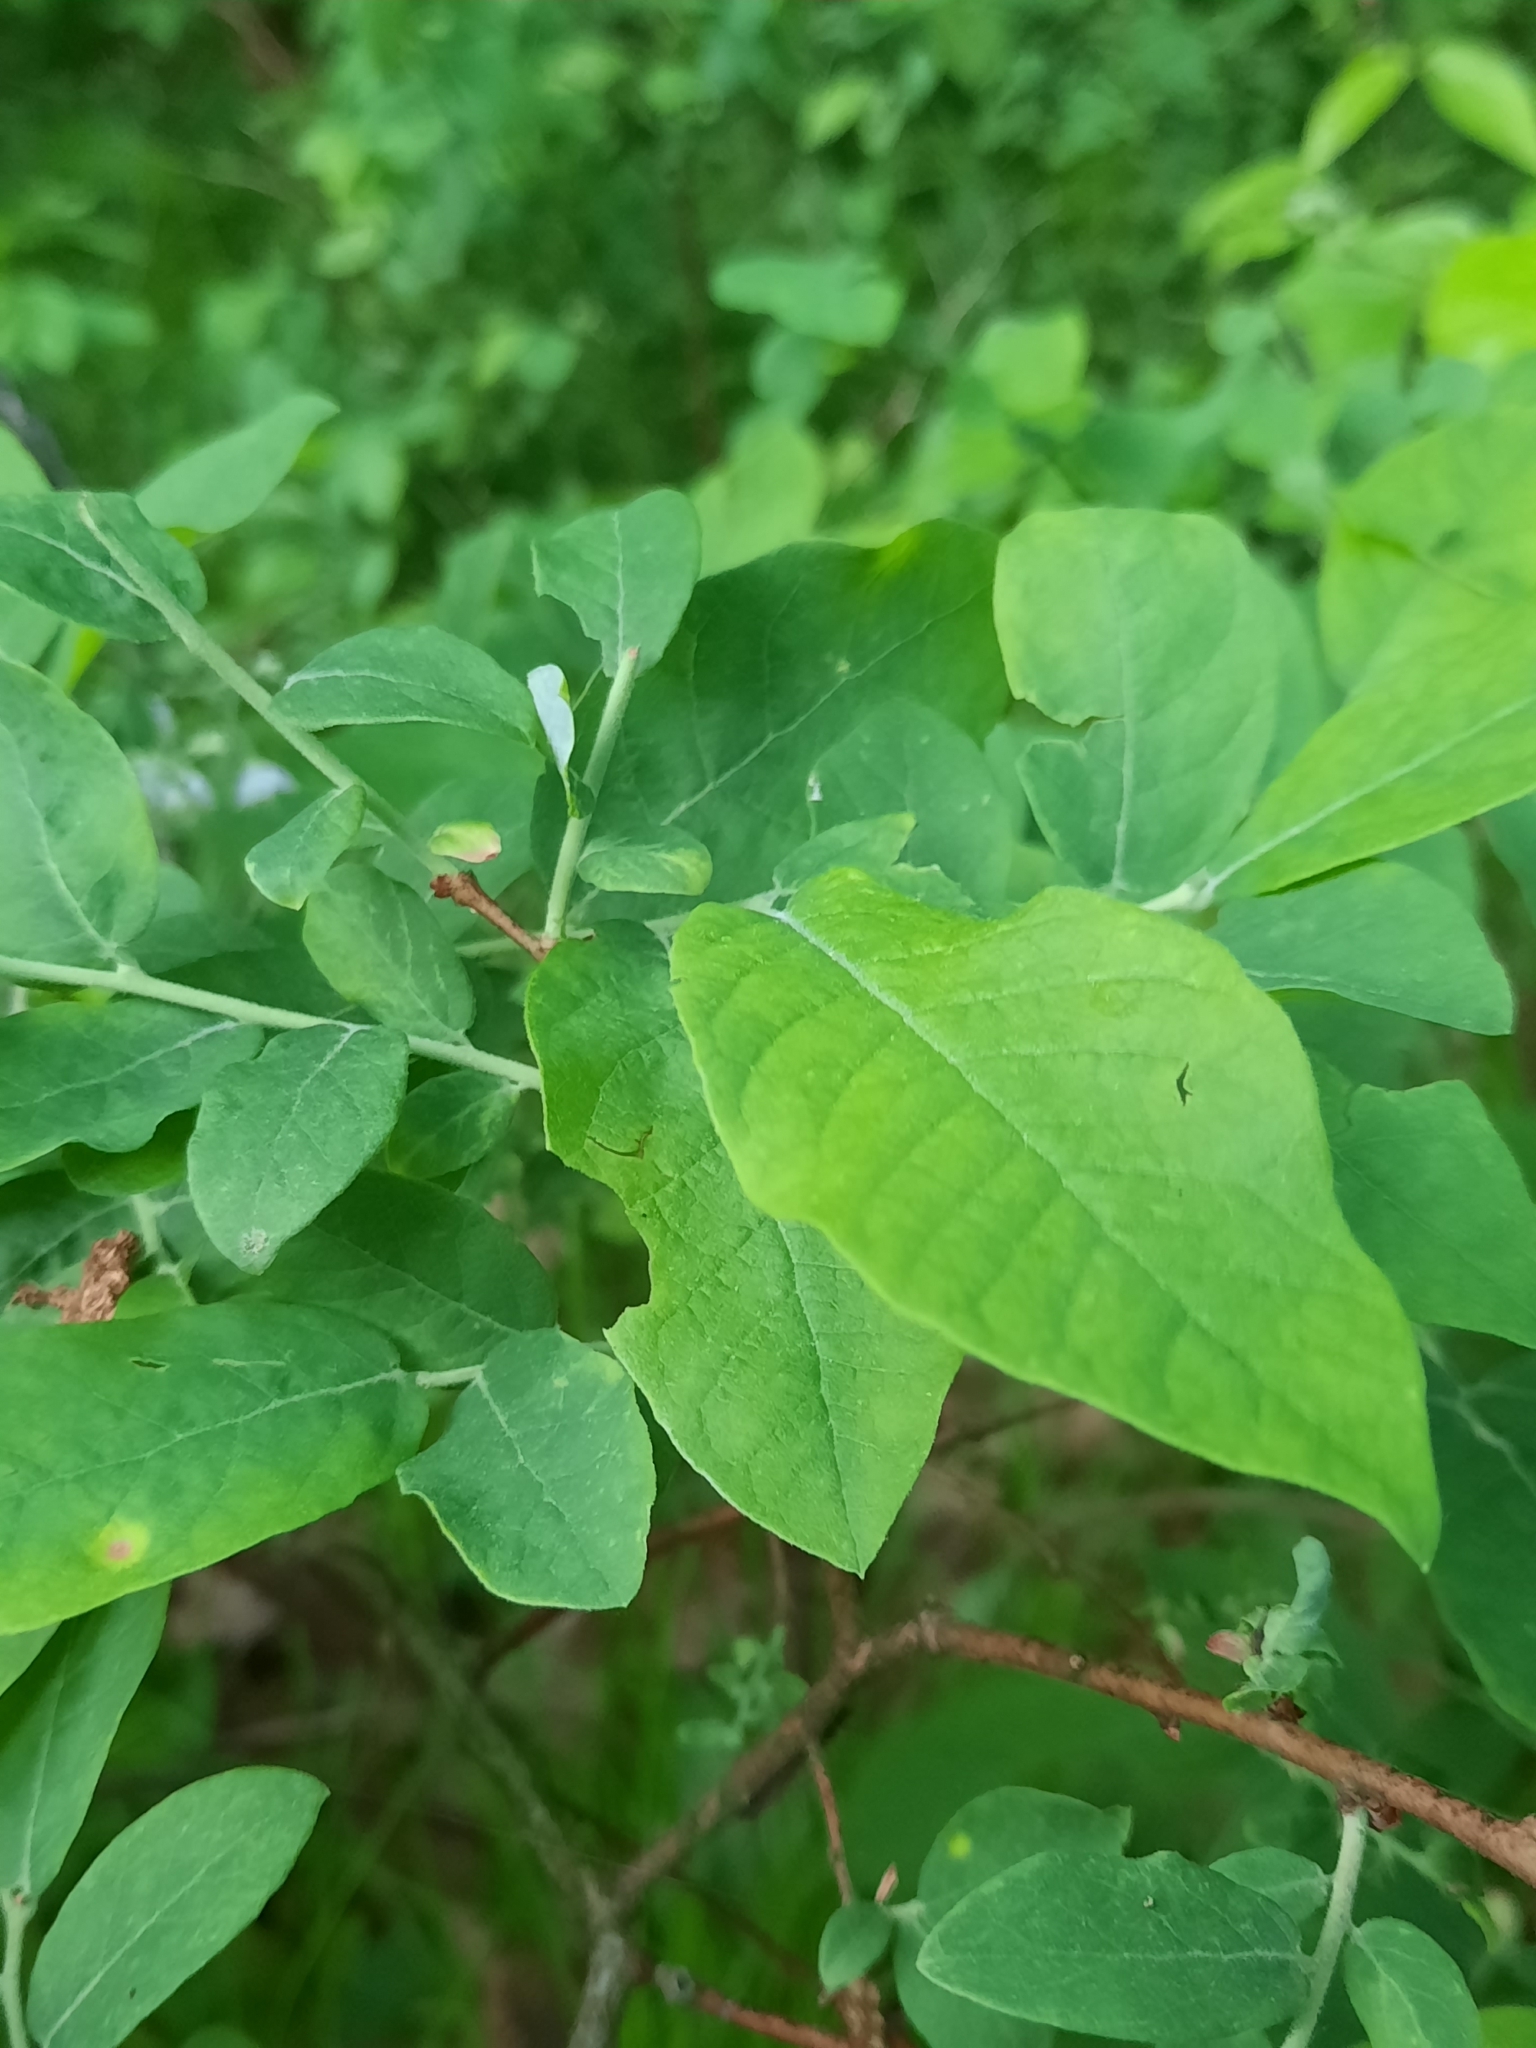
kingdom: Plantae
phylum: Tracheophyta
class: Magnoliopsida
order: Ericales
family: Ericaceae
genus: Vaccinium
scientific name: Vaccinium stamineum
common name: Deerberry
